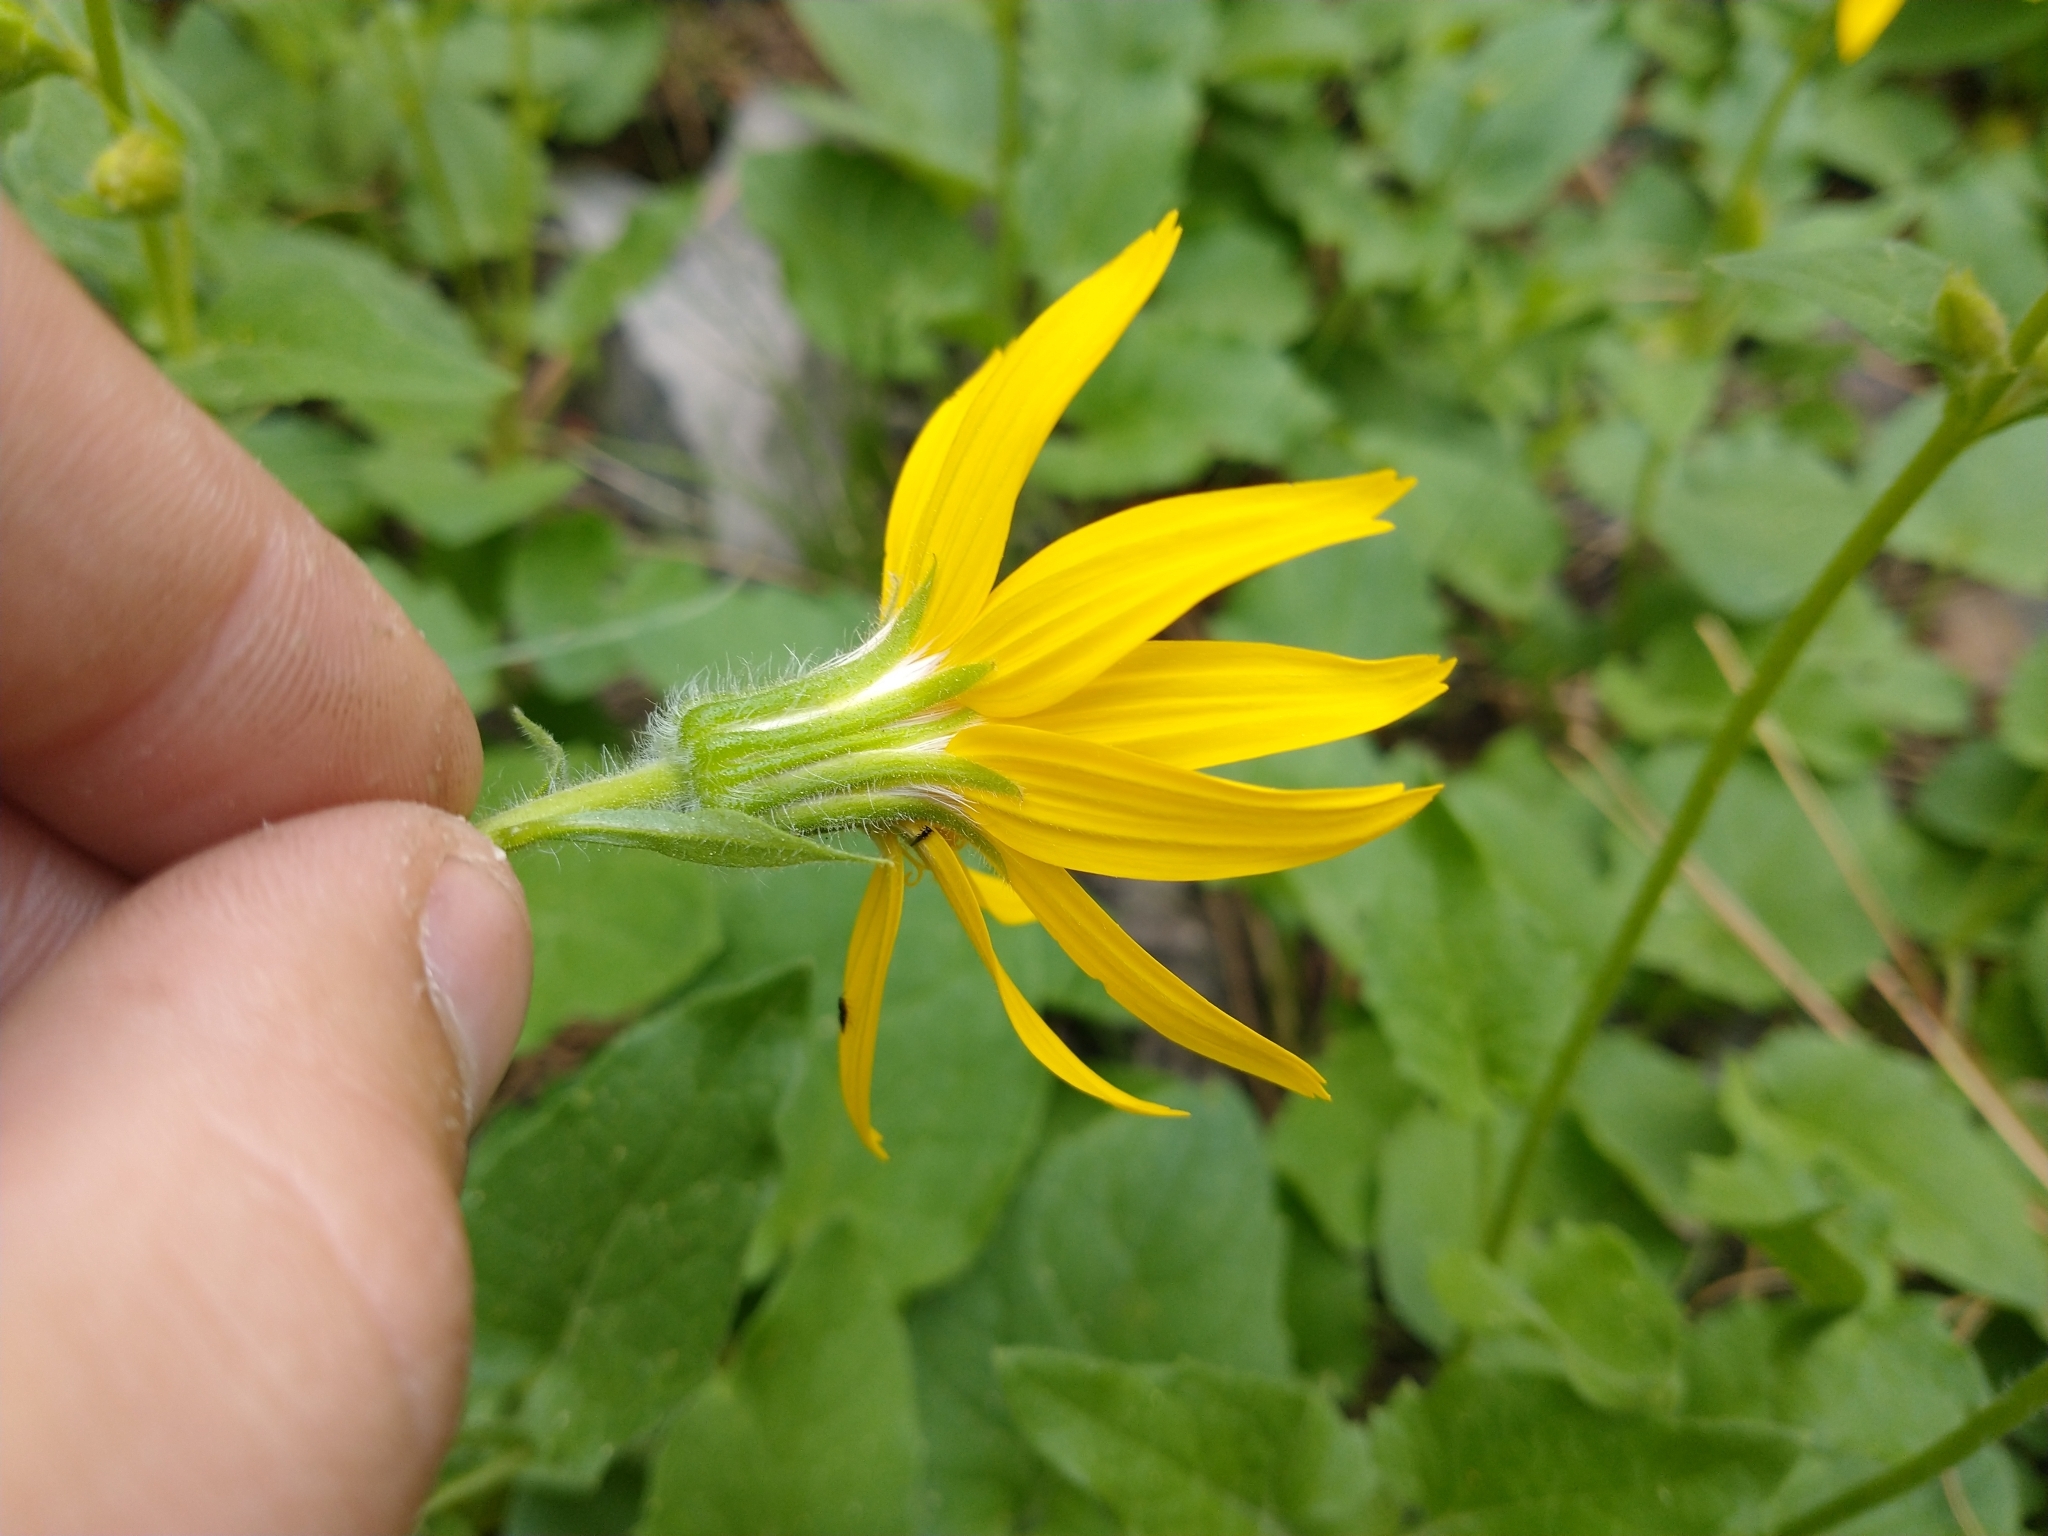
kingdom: Plantae
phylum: Tracheophyta
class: Magnoliopsida
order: Asterales
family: Asteraceae
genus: Arnica
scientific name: Arnica cordifolia
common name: Heart-leaf arnica
